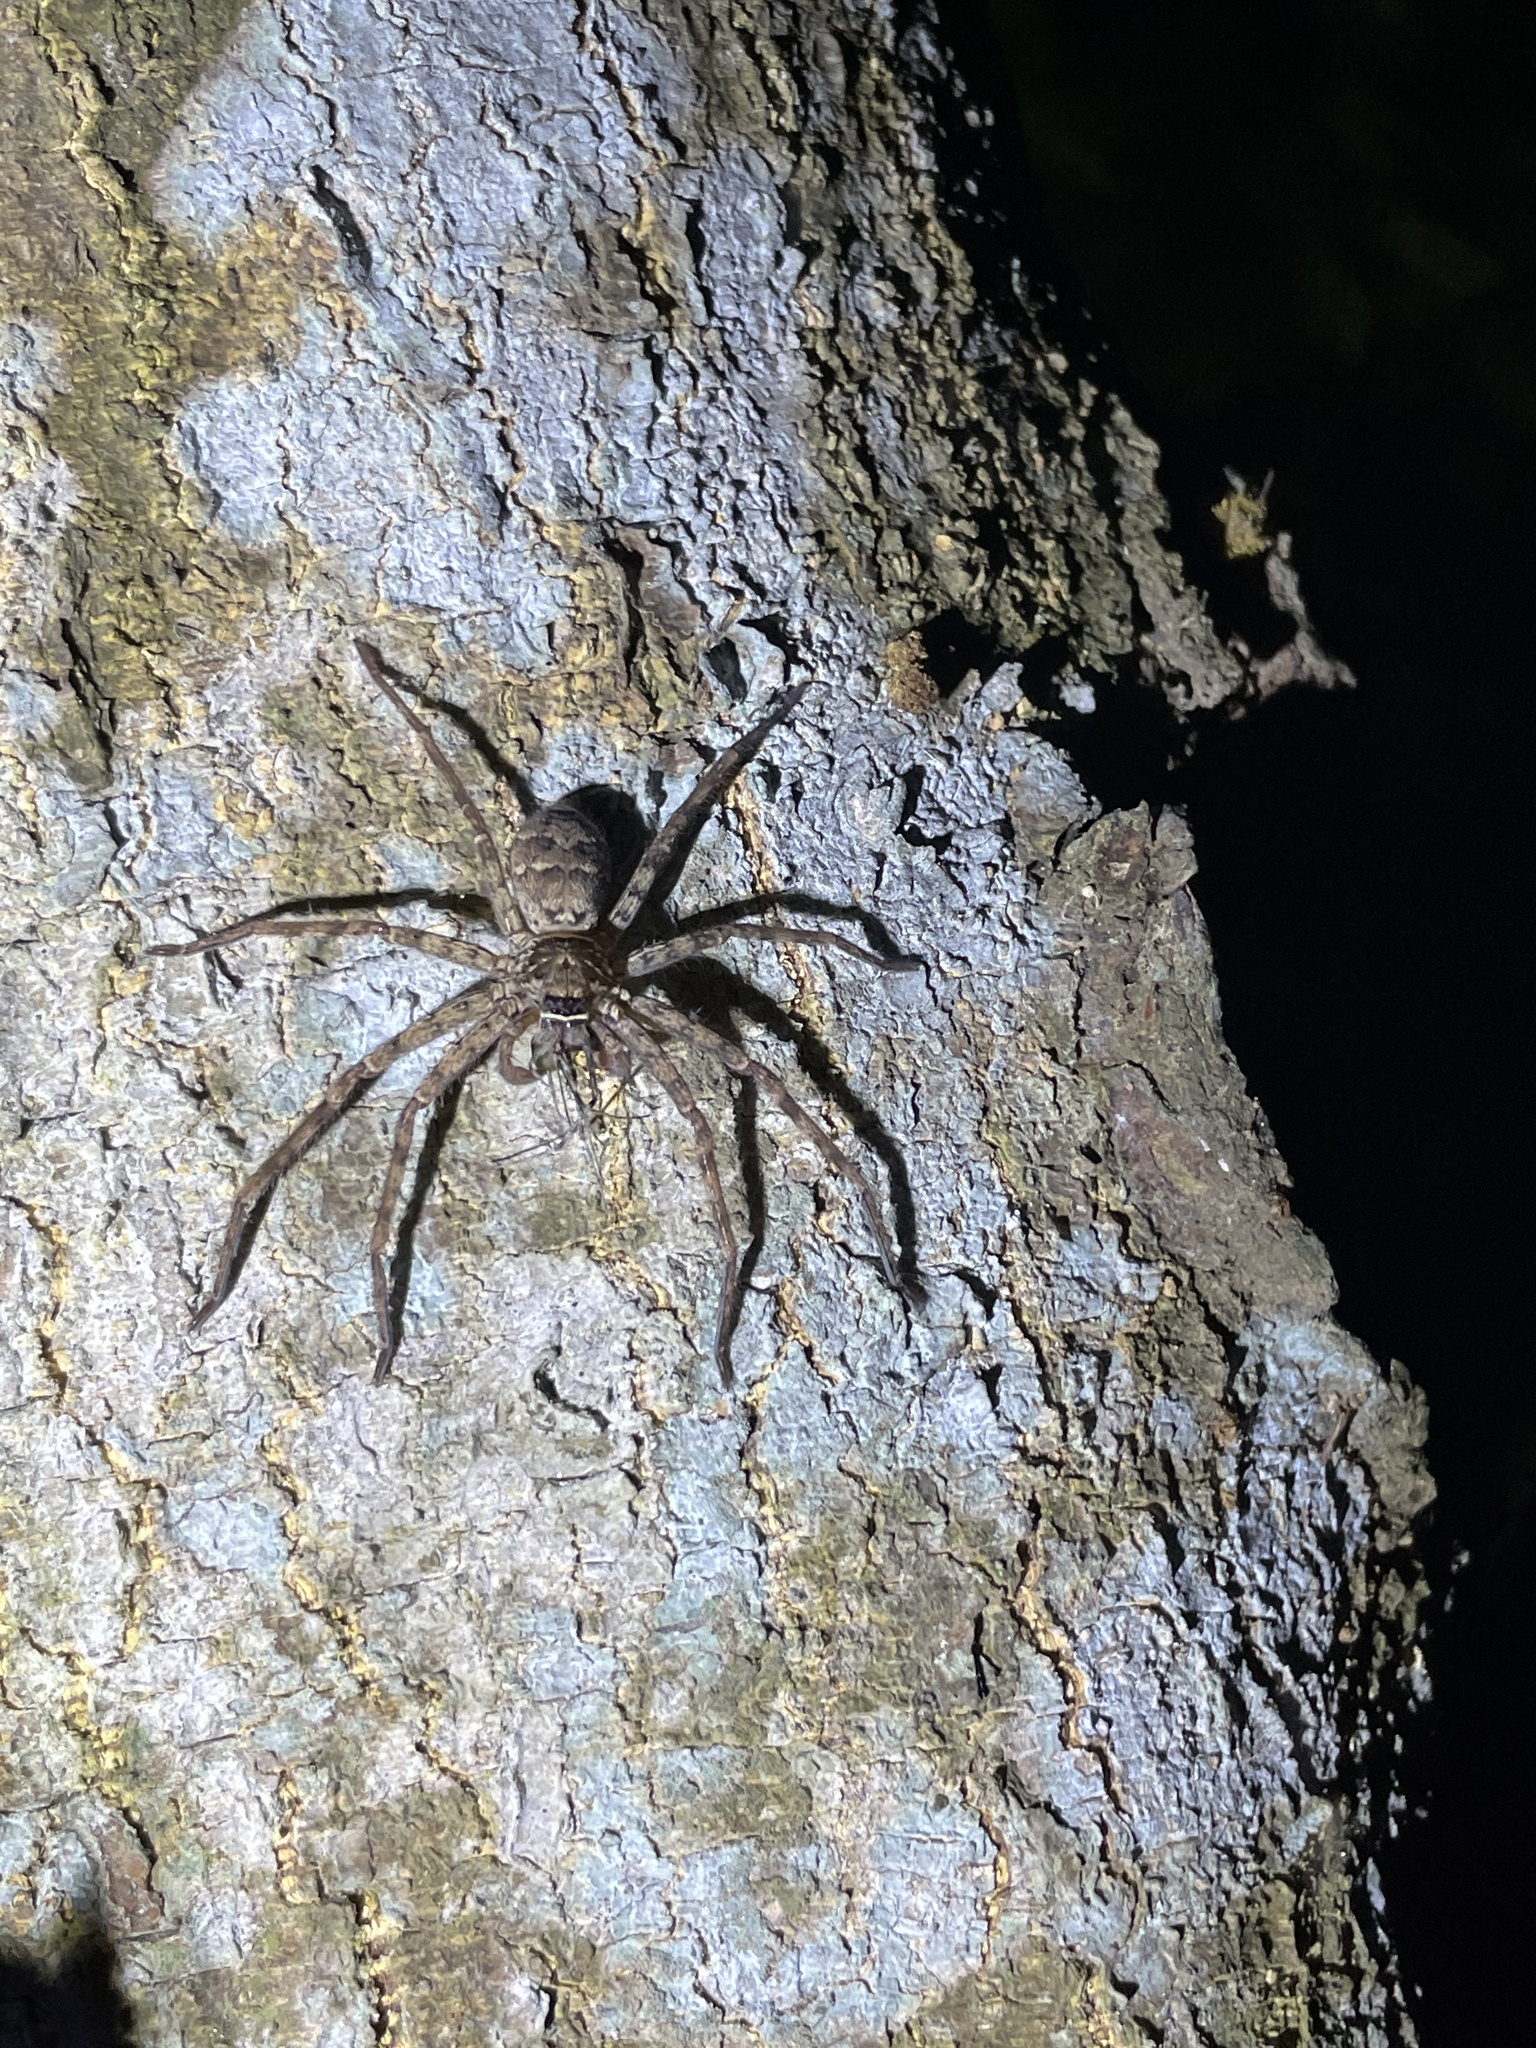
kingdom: Animalia
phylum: Arthropoda
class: Arachnida
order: Araneae
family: Sparassidae
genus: Heteropoda
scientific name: Heteropoda venatoria
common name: Huntsman spider
